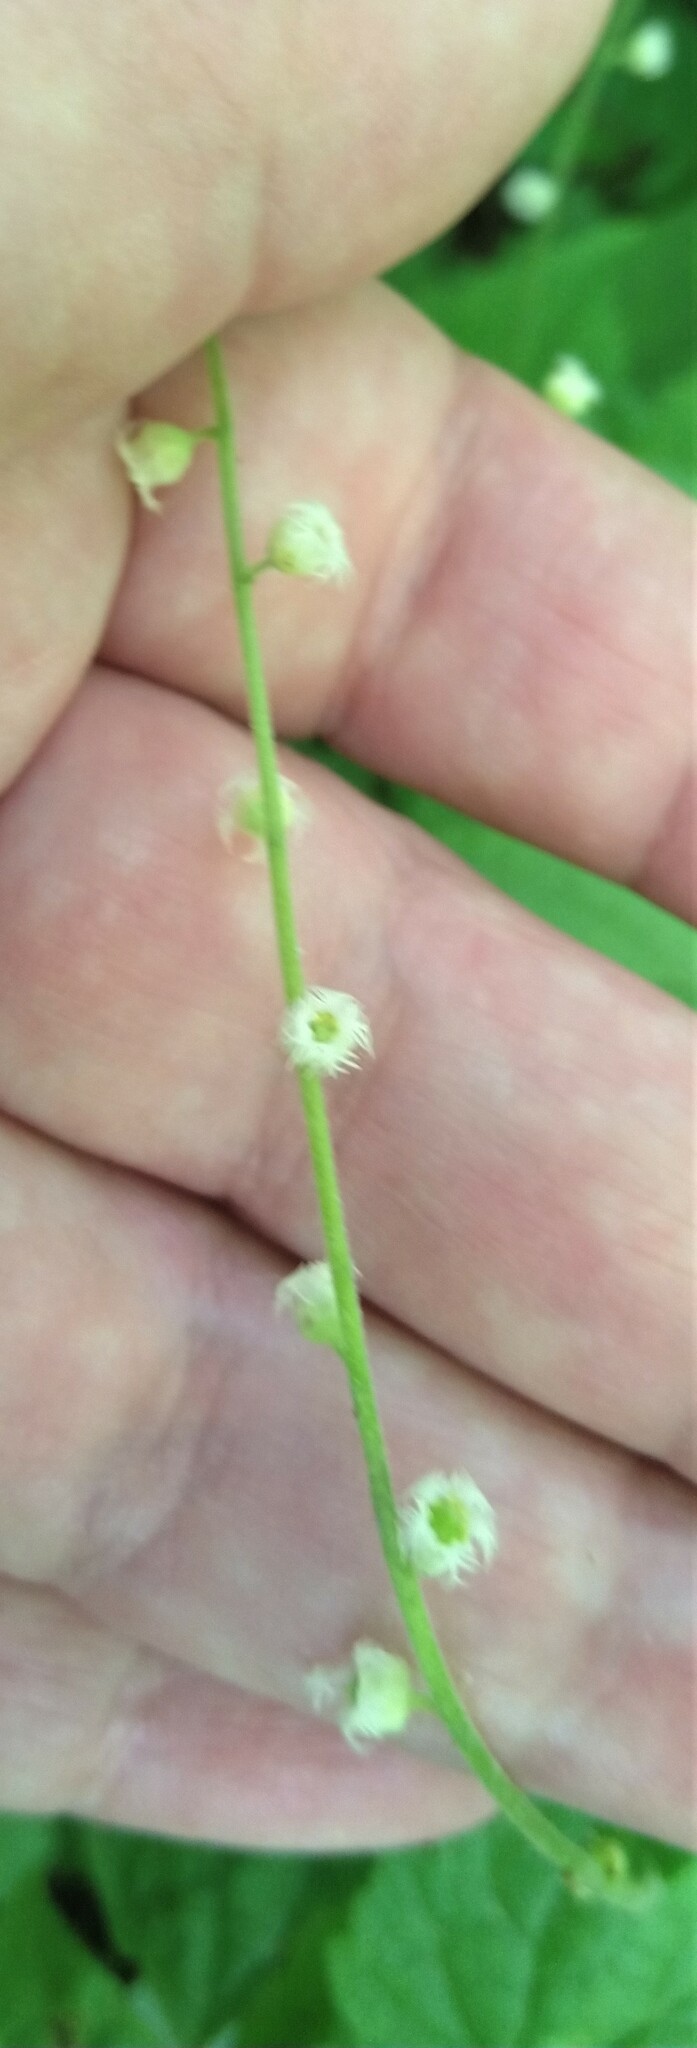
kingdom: Plantae
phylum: Tracheophyta
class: Magnoliopsida
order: Saxifragales
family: Saxifragaceae
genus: Mitella
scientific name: Mitella diphylla
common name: Coolwort
